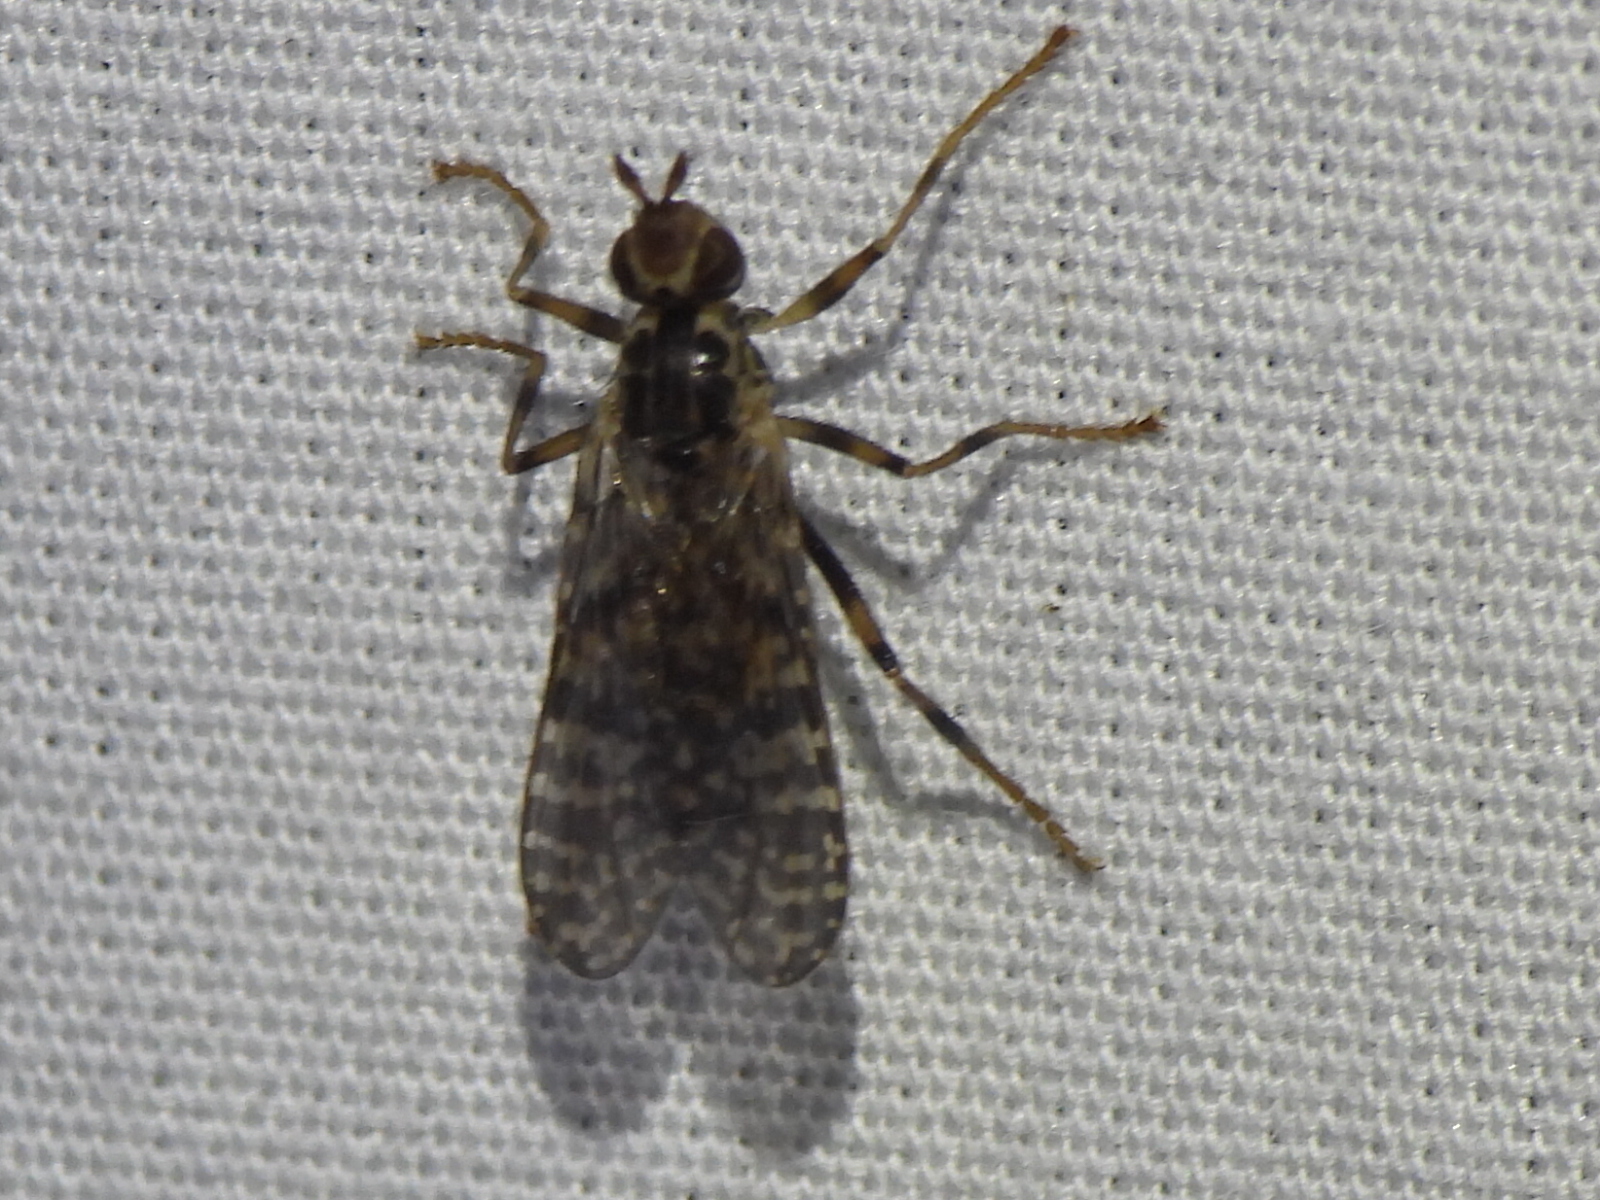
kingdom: Animalia
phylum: Arthropoda
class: Insecta
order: Diptera
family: Pyrgotidae
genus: Boreothrinax
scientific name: Boreothrinax
